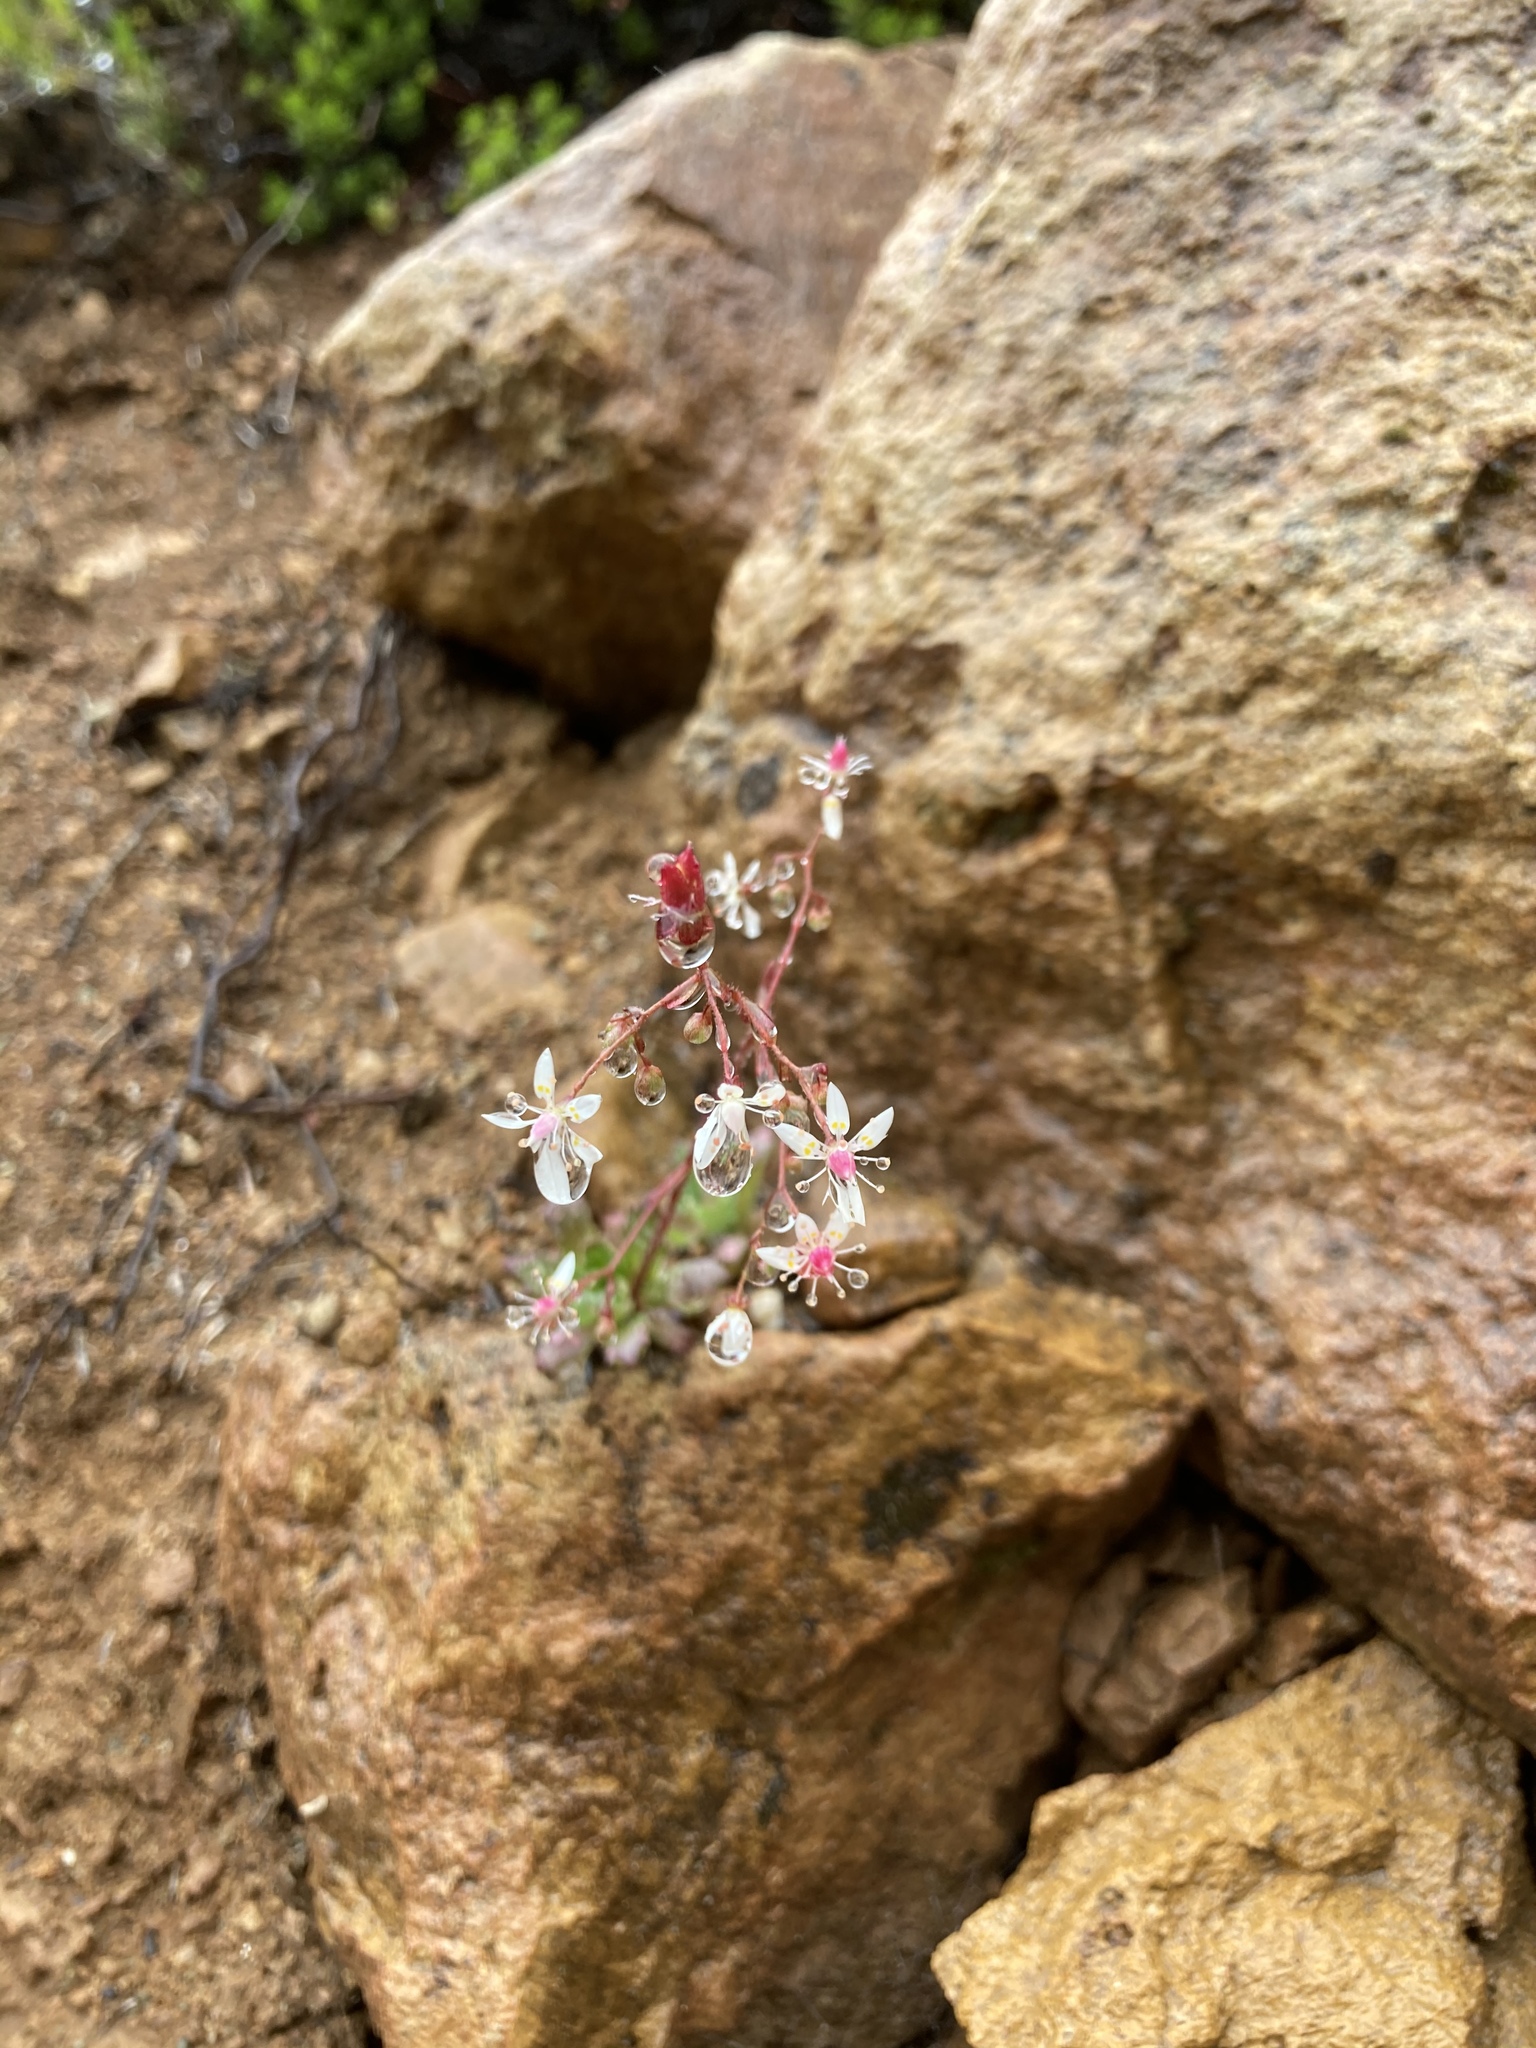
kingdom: Plantae
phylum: Tracheophyta
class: Magnoliopsida
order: Saxifragales
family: Saxifragaceae
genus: Micranthes
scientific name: Micranthes ferruginea
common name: Rusty saxifrage
